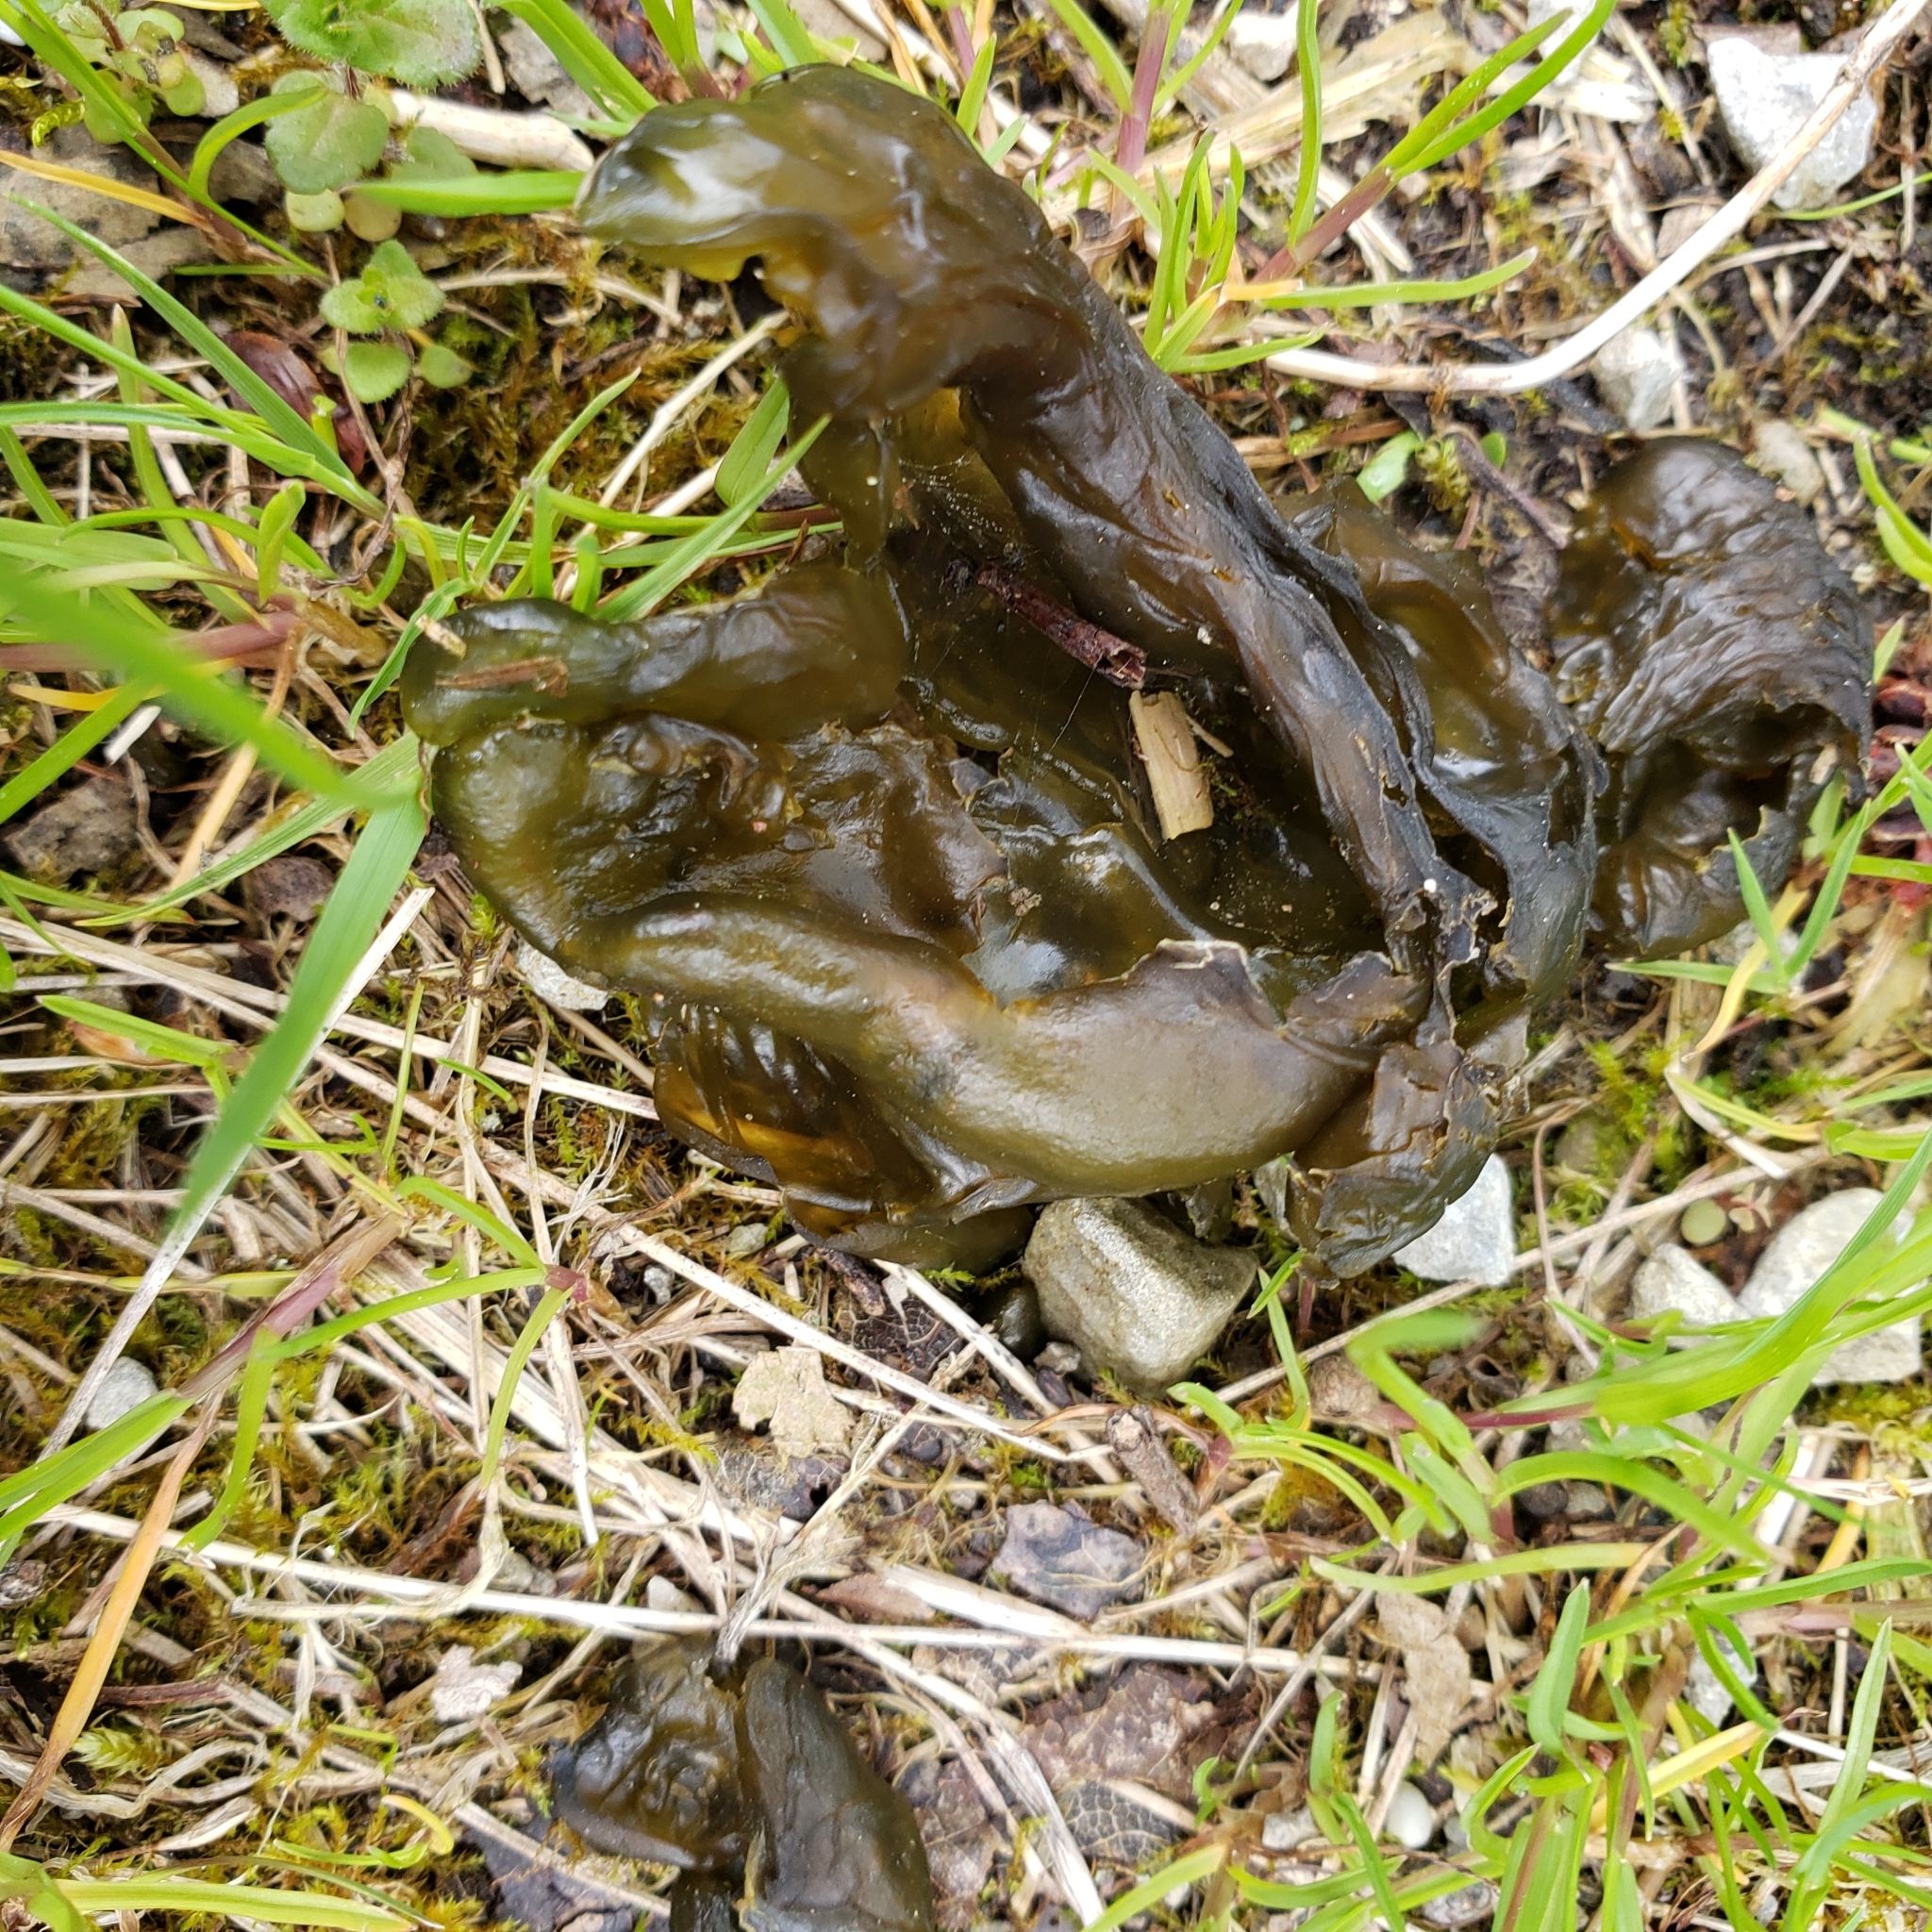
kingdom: Bacteria
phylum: Cyanobacteria
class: Cyanobacteriia
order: Cyanobacteriales
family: Nostocaceae
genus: Nostoc
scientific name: Nostoc commune
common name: Star jelly
